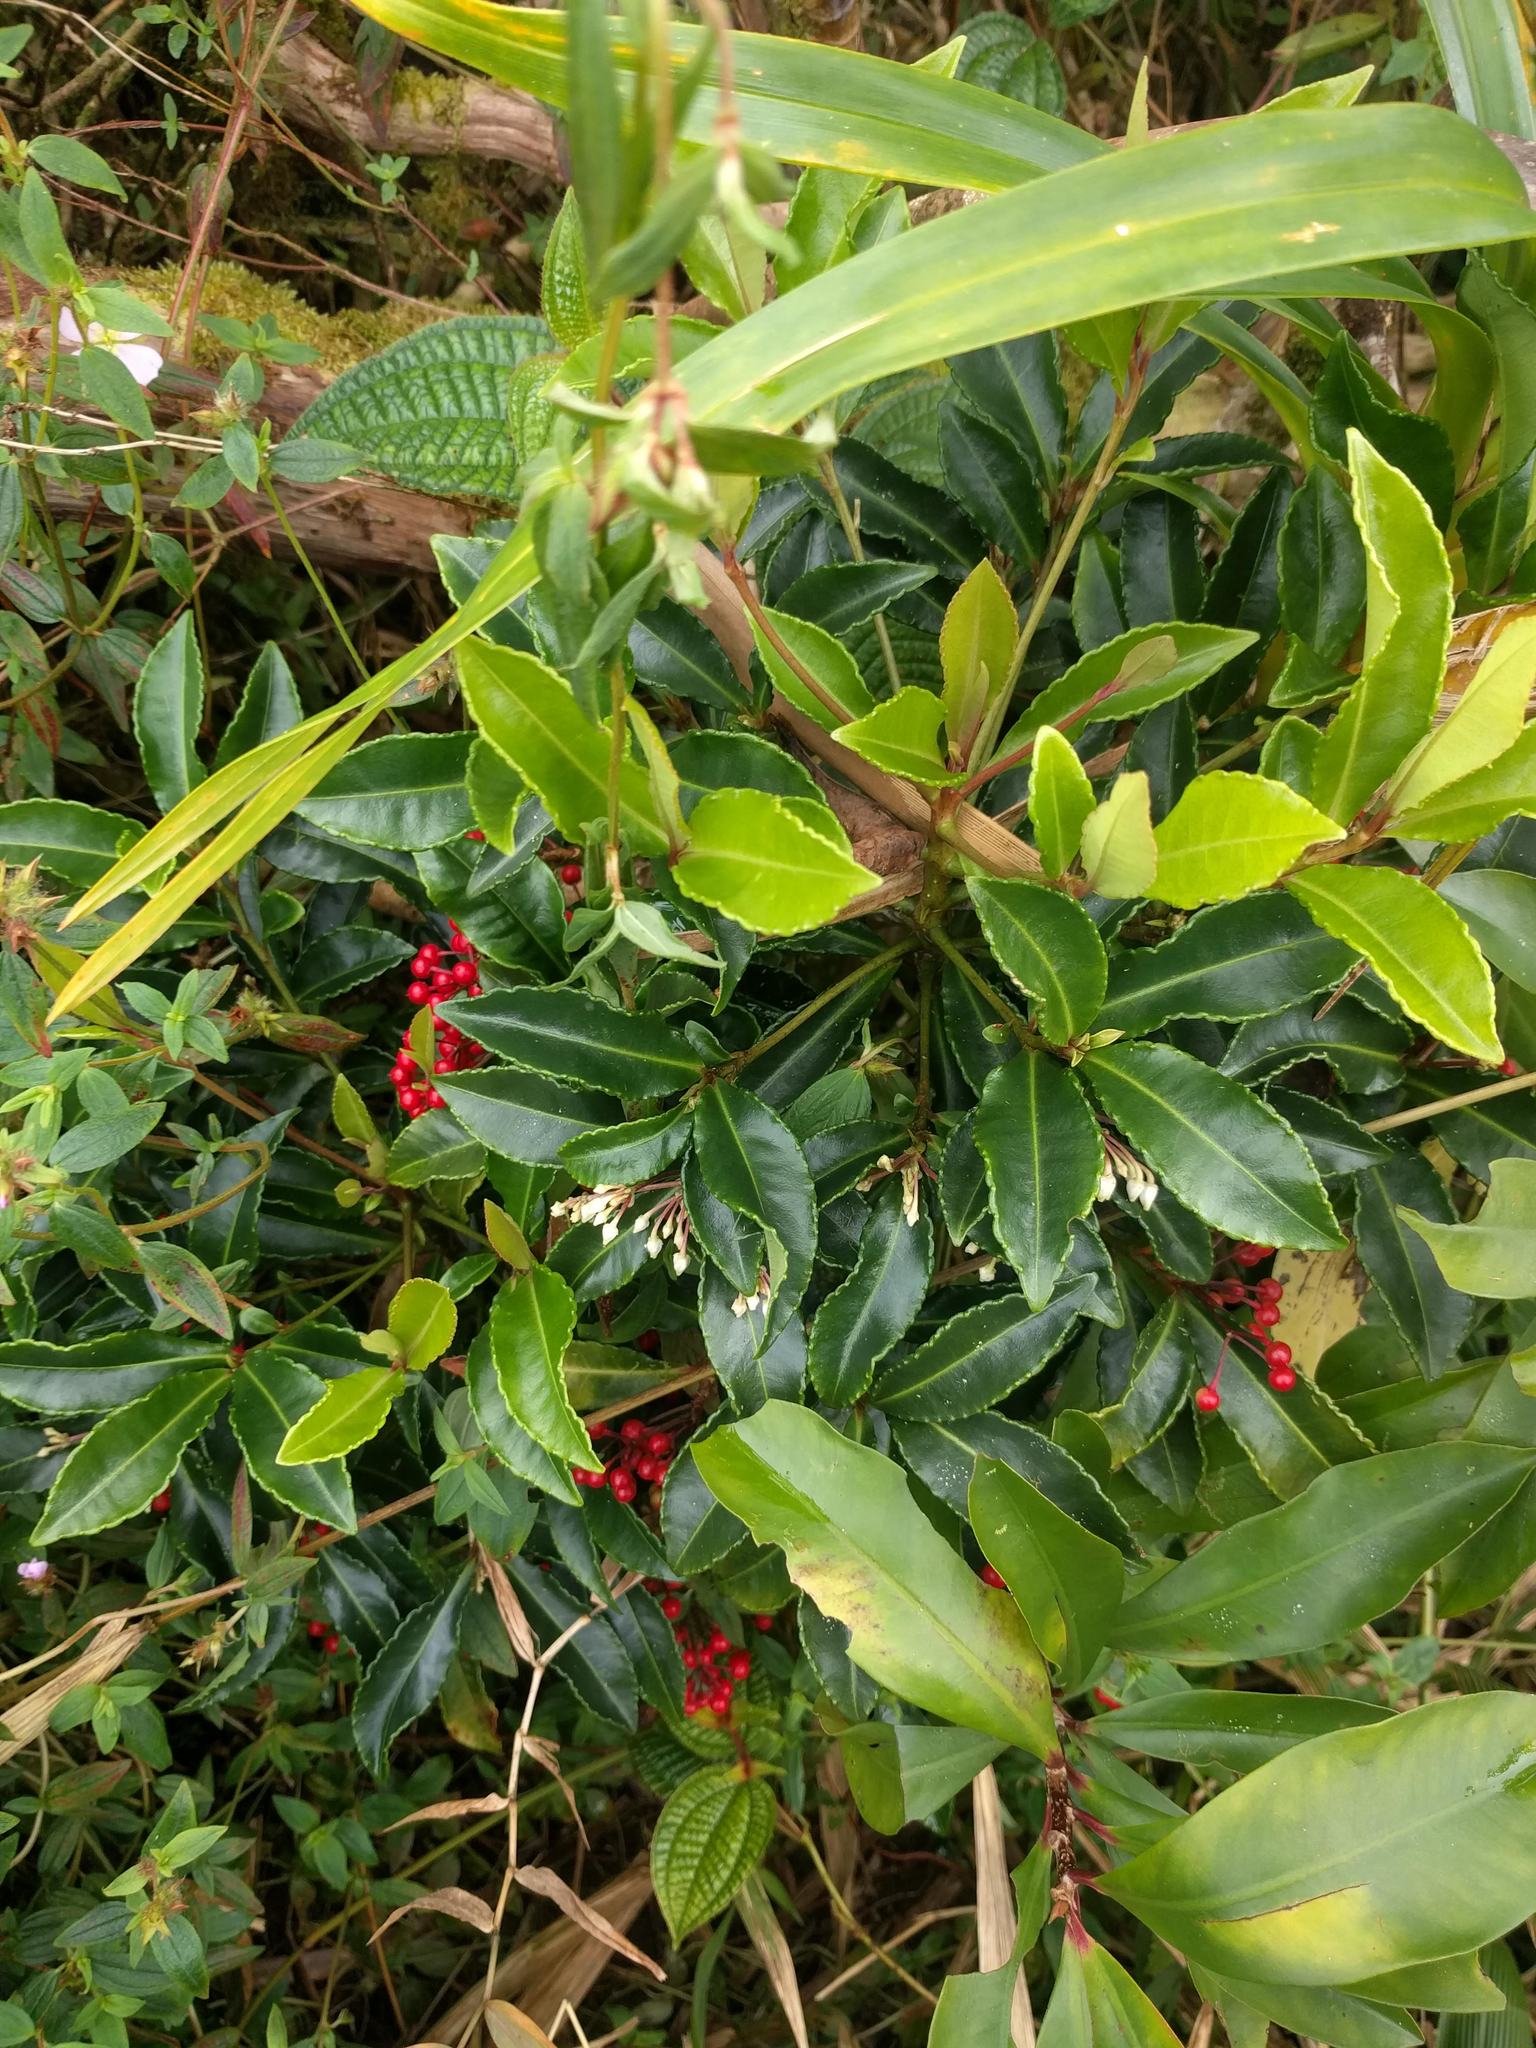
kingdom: Plantae
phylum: Tracheophyta
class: Magnoliopsida
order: Ericales
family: Primulaceae
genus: Ardisia
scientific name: Ardisia crenata
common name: Hen's eyes
